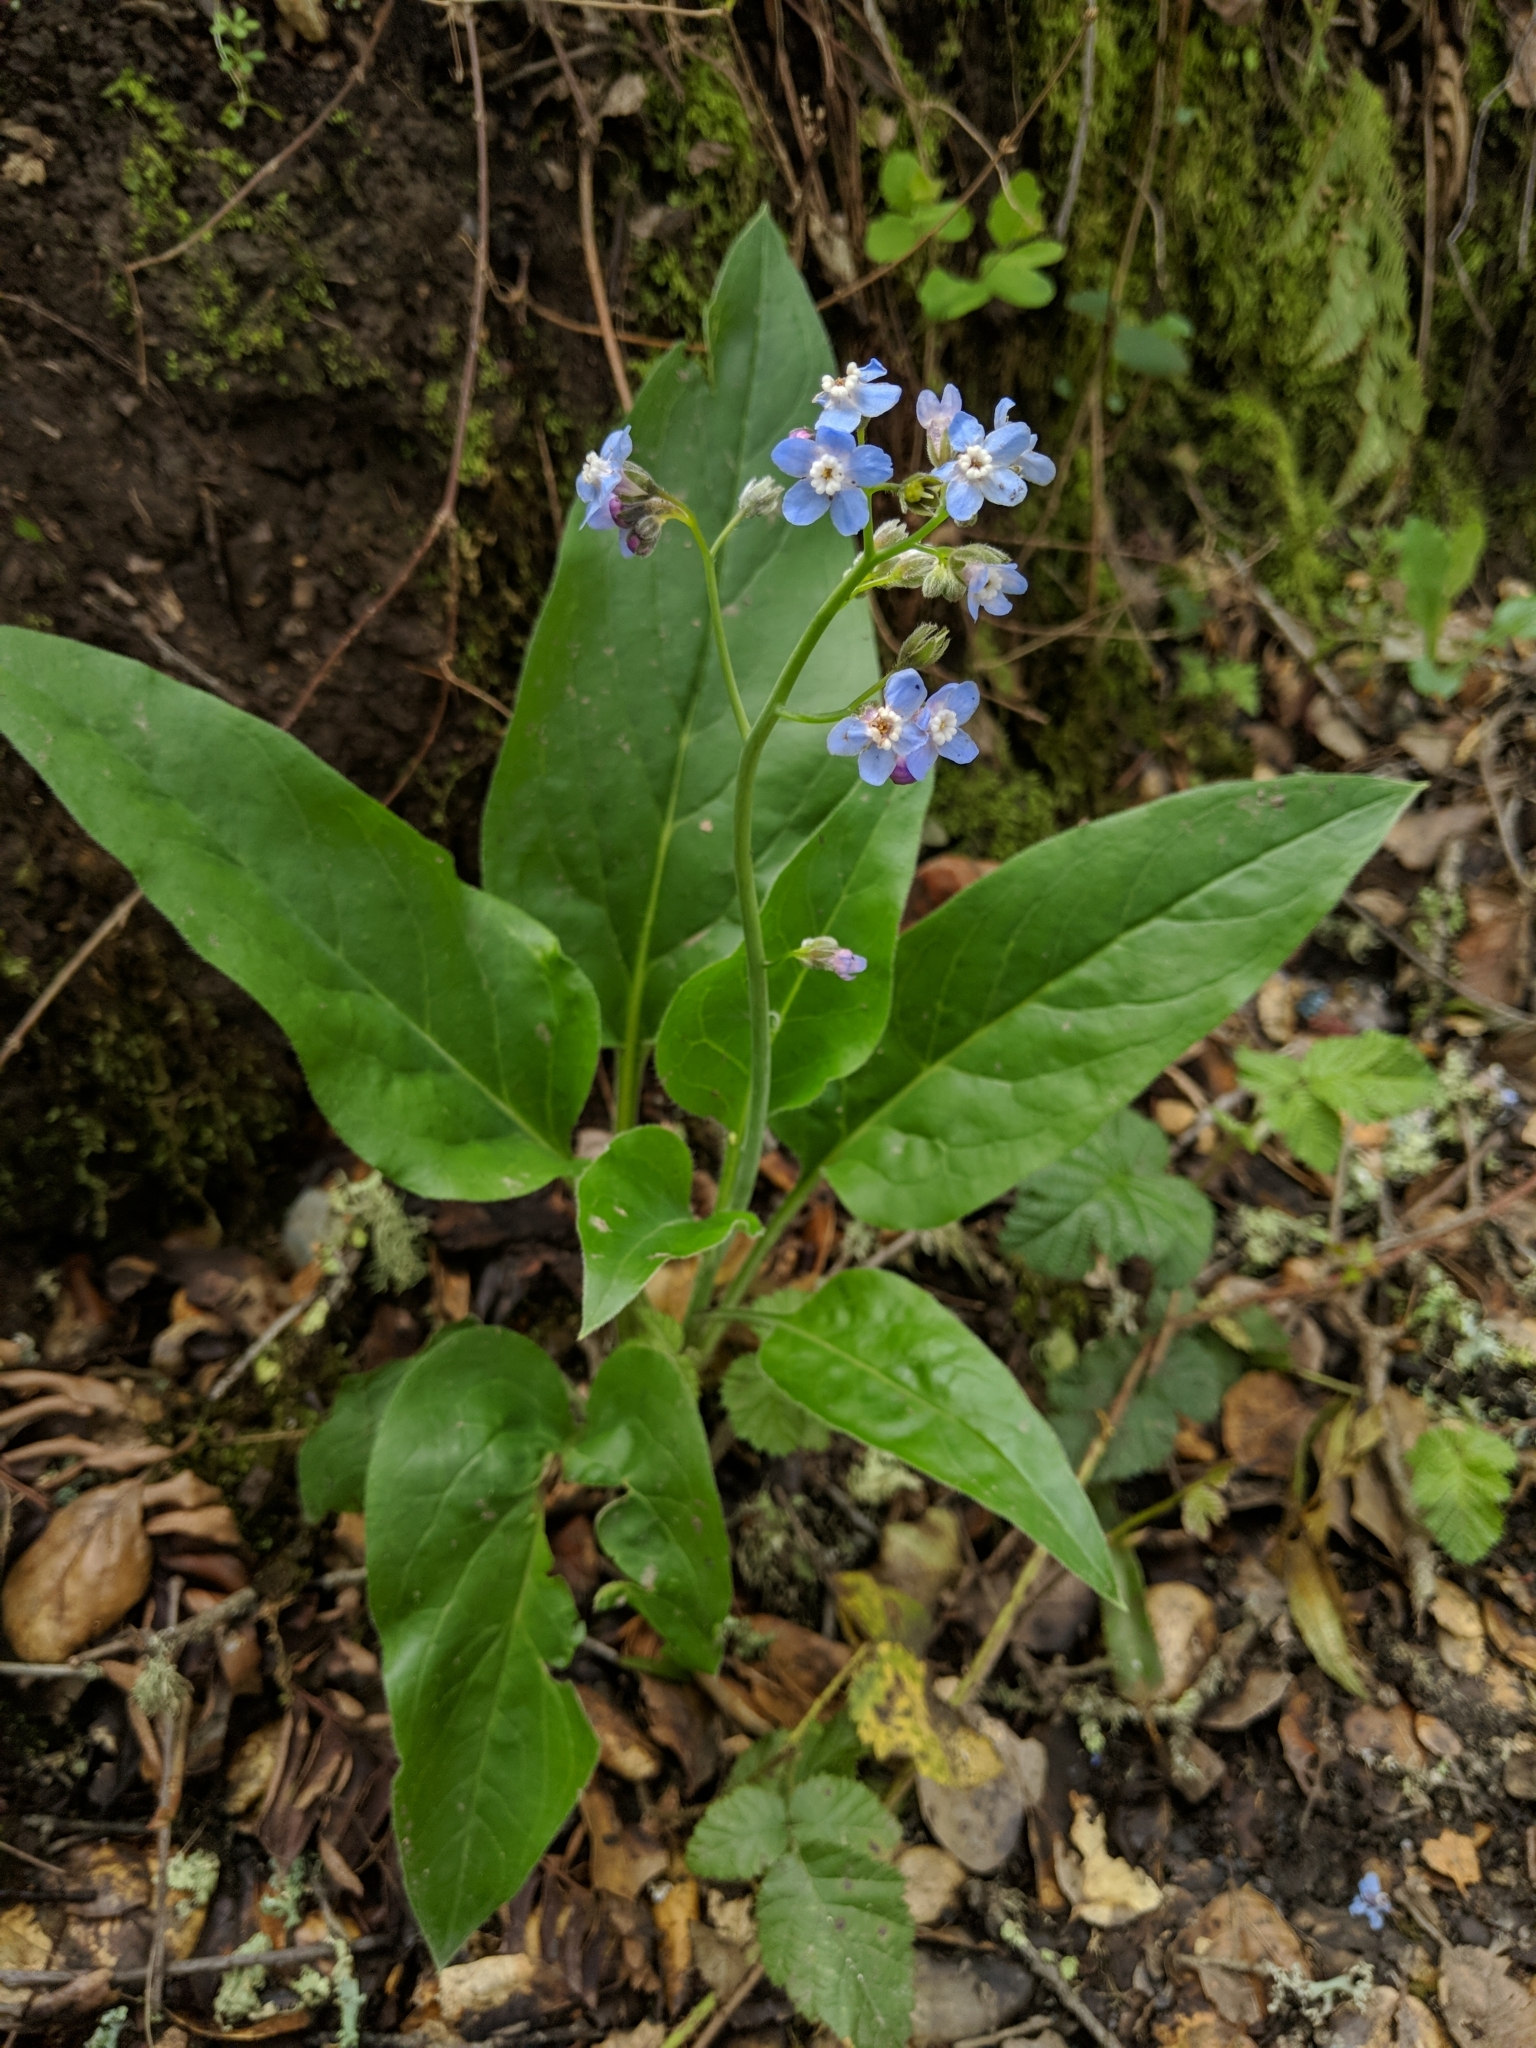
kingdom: Plantae
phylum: Tracheophyta
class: Magnoliopsida
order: Boraginales
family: Boraginaceae
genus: Adelinia
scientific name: Adelinia grande
